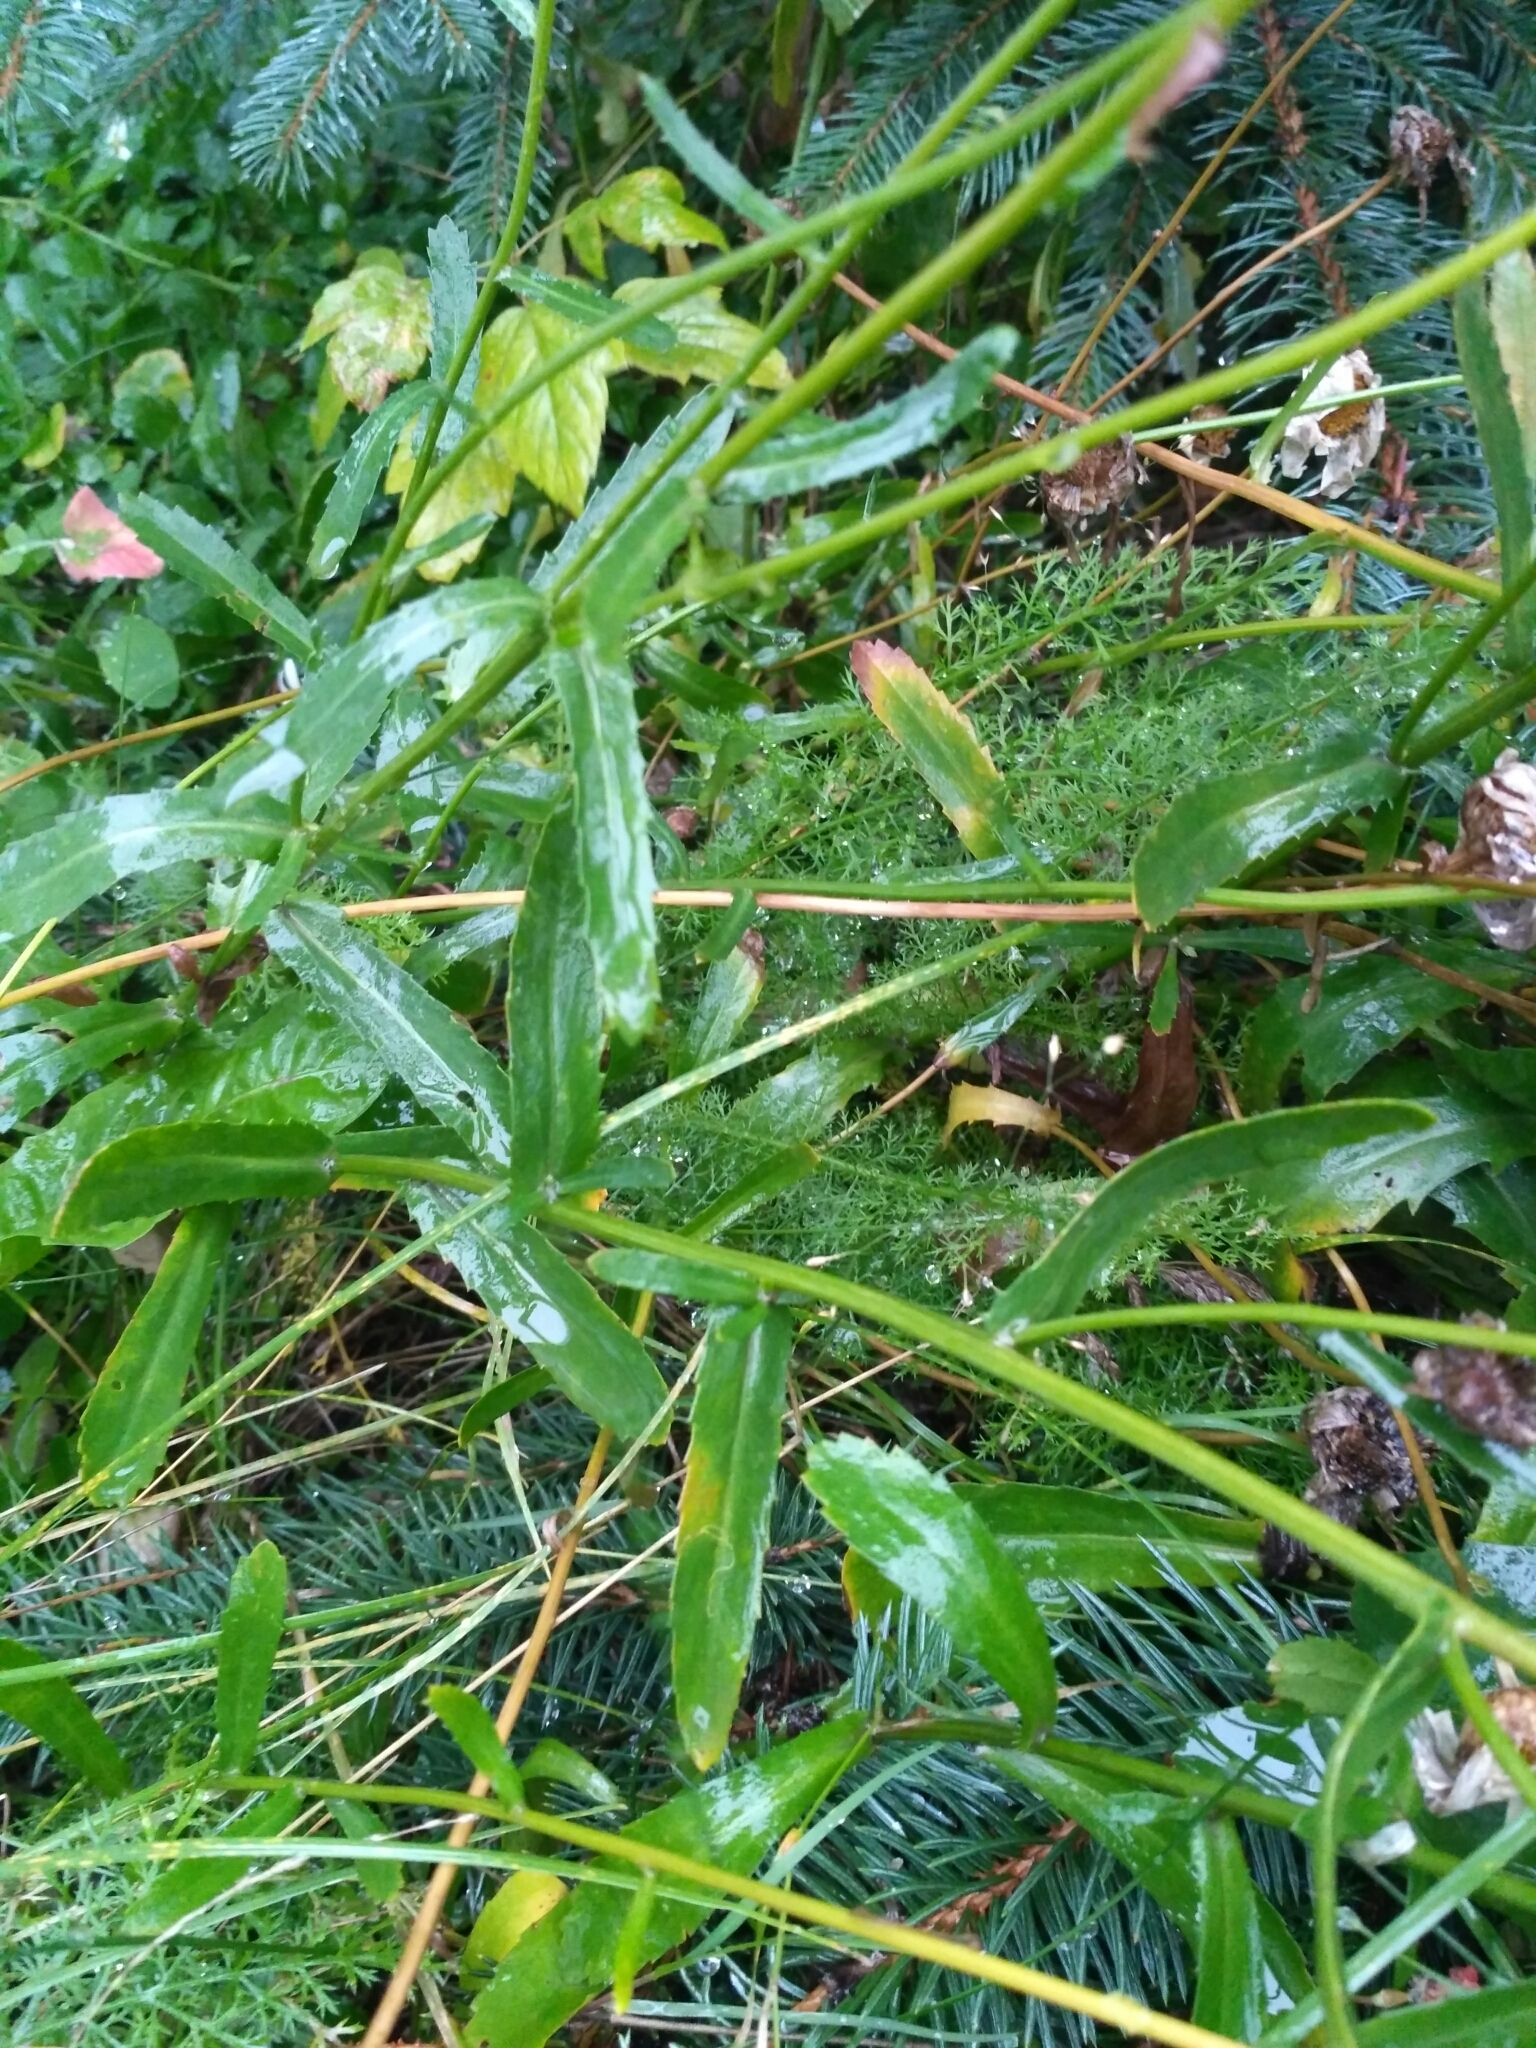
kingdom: Plantae
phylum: Tracheophyta
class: Magnoliopsida
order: Asterales
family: Asteraceae
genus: Leucanthemum
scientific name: Leucanthemum ircutianum
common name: Daisy
